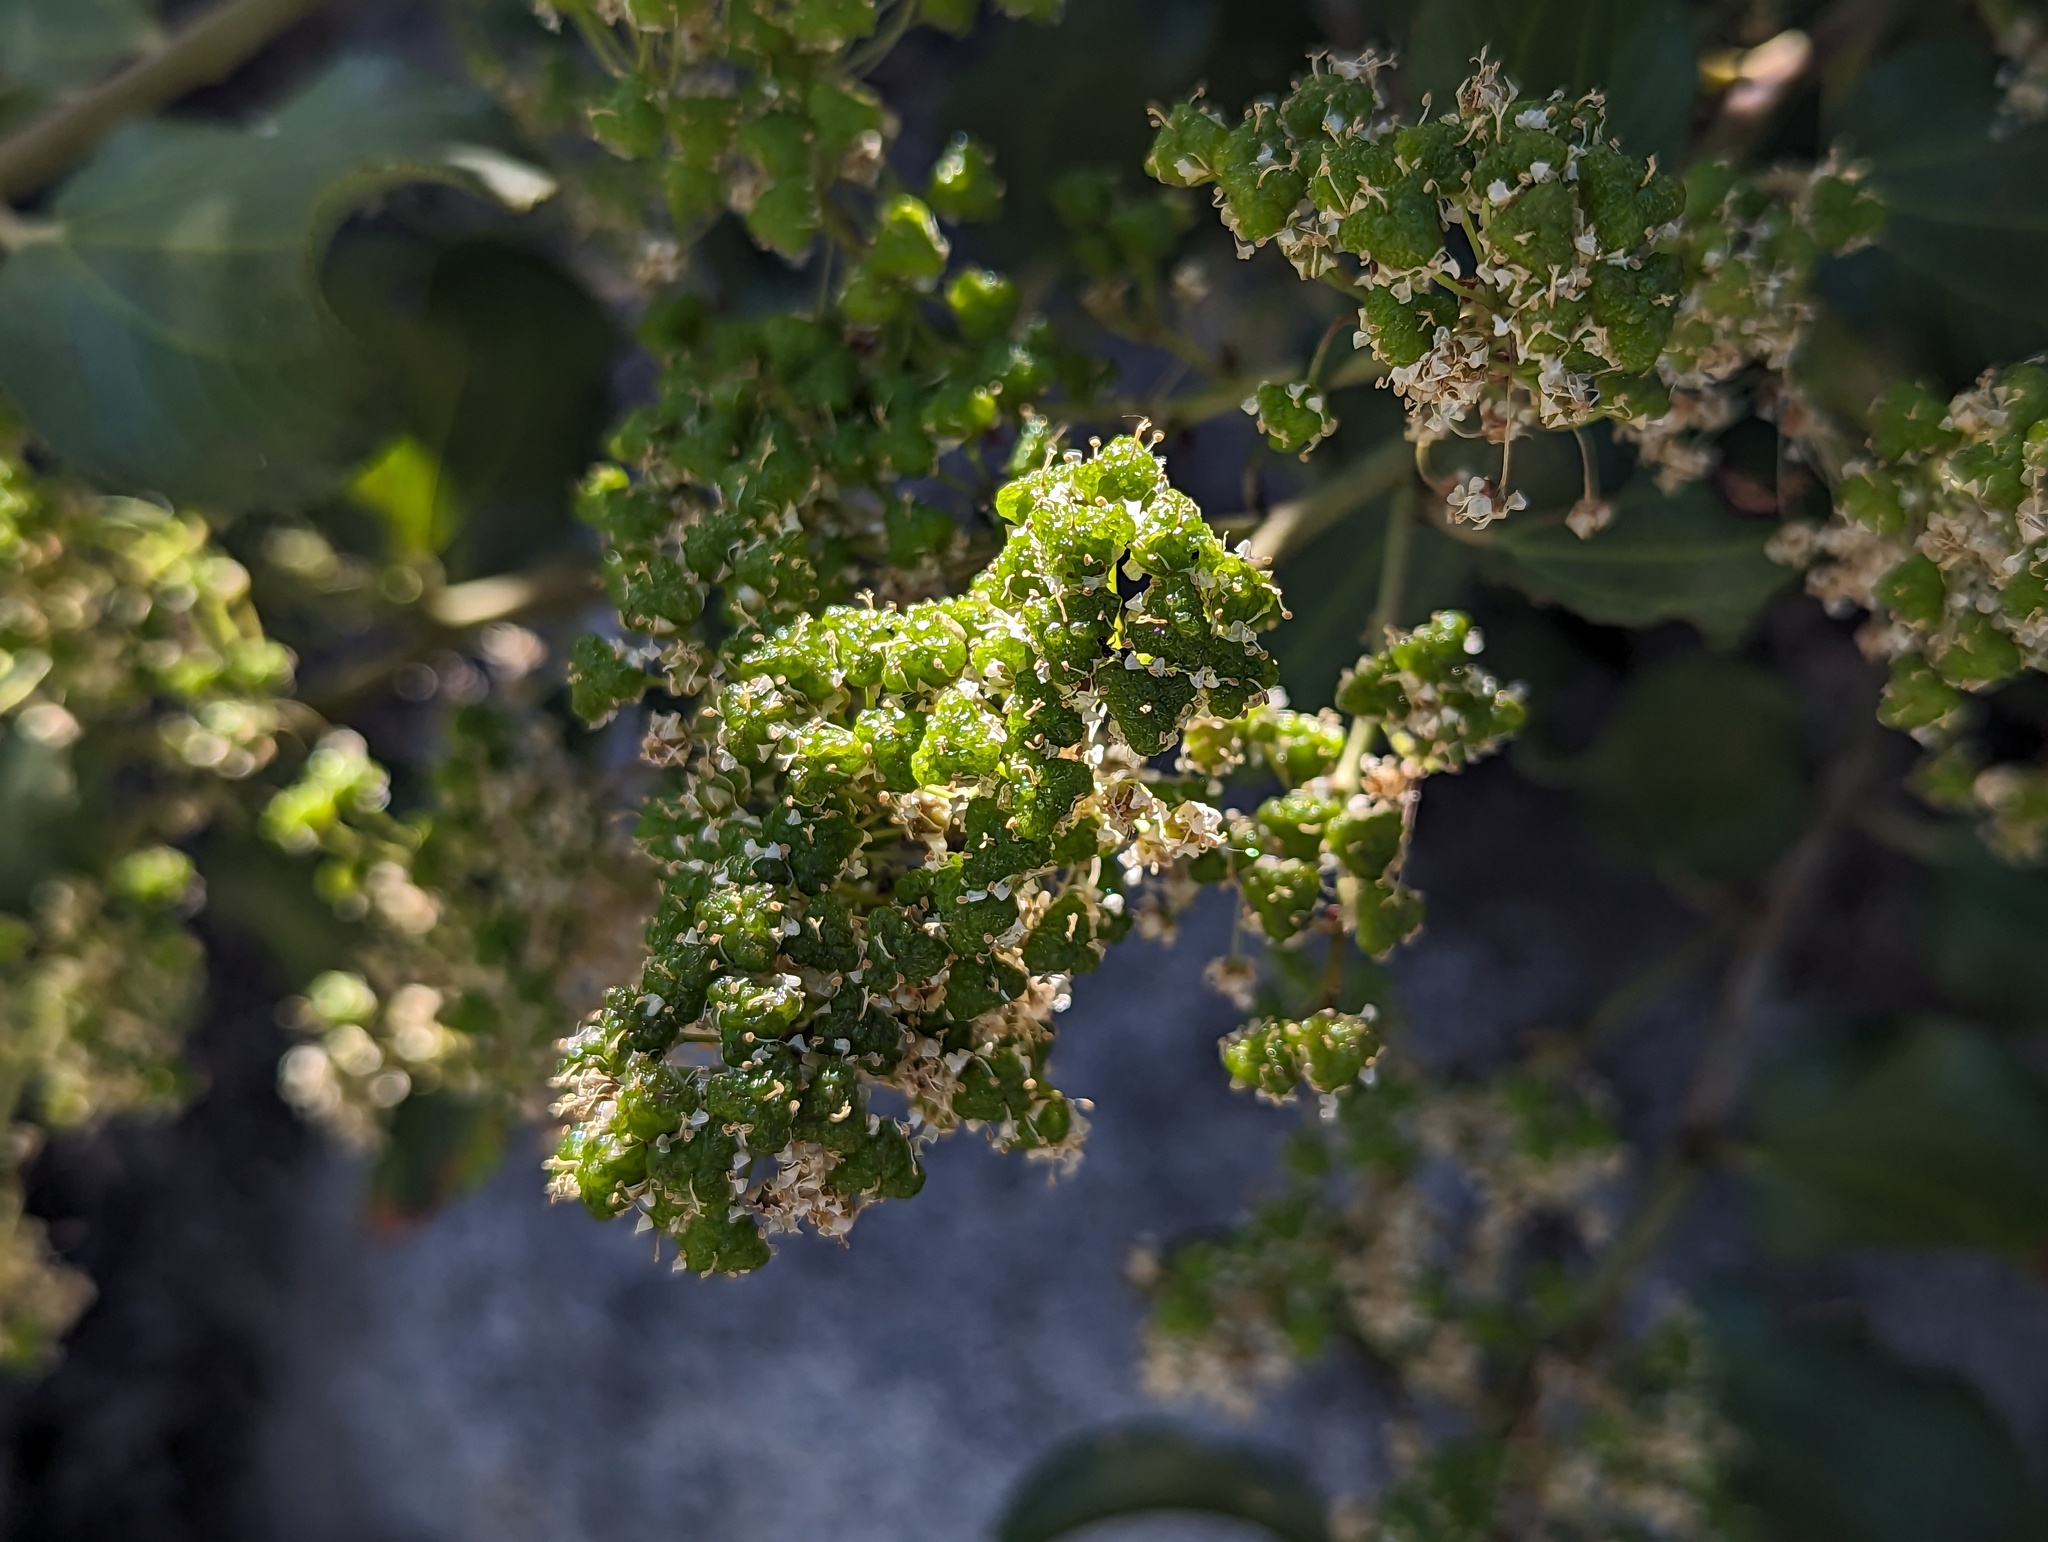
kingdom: Plantae
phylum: Tracheophyta
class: Magnoliopsida
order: Rosales
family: Rhamnaceae
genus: Ceanothus
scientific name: Ceanothus velutinus
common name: Snowbrush
